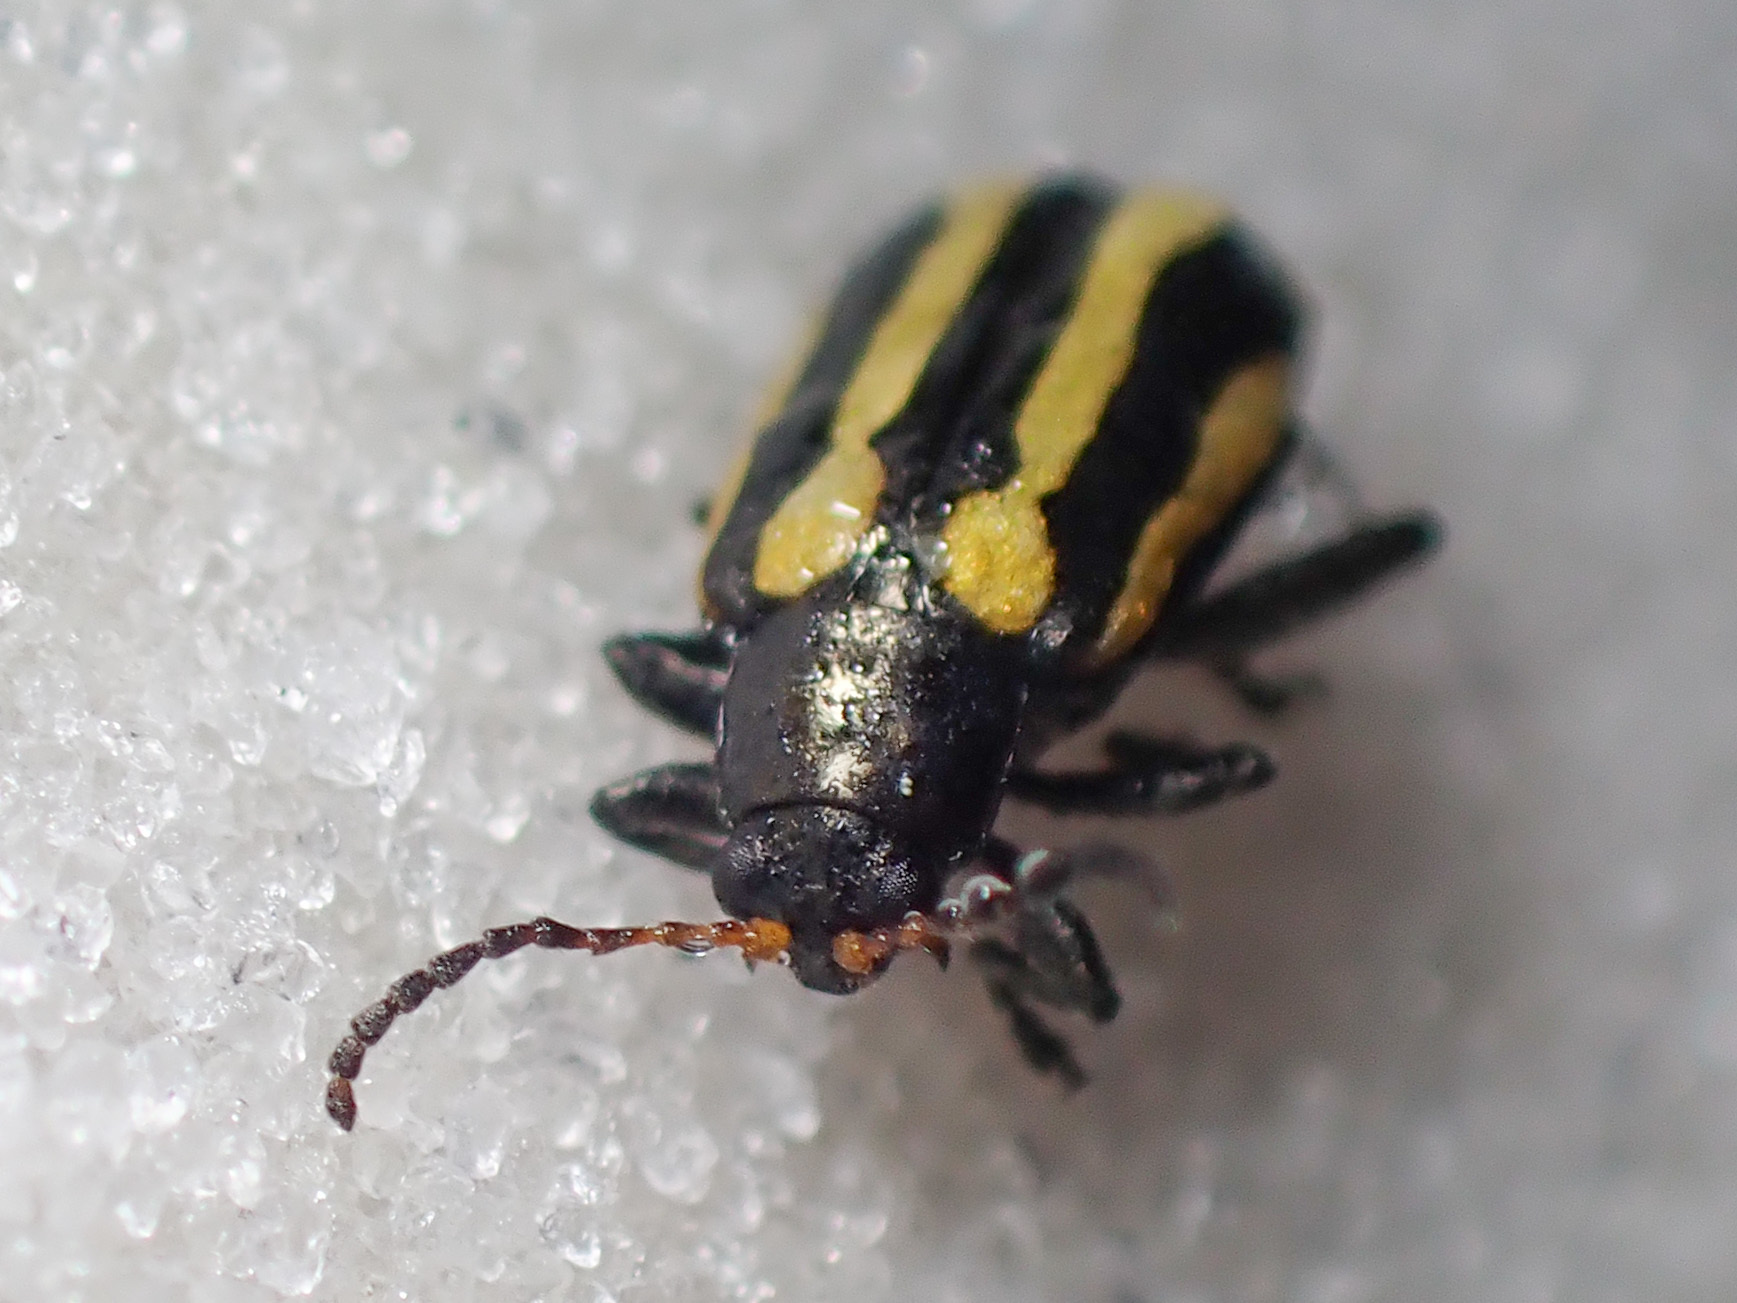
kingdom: Animalia
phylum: Arthropoda
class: Insecta
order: Coleoptera
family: Chrysomelidae
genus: Agasicles
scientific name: Agasicles hygrophila
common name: Alligatorweed flea beetle
